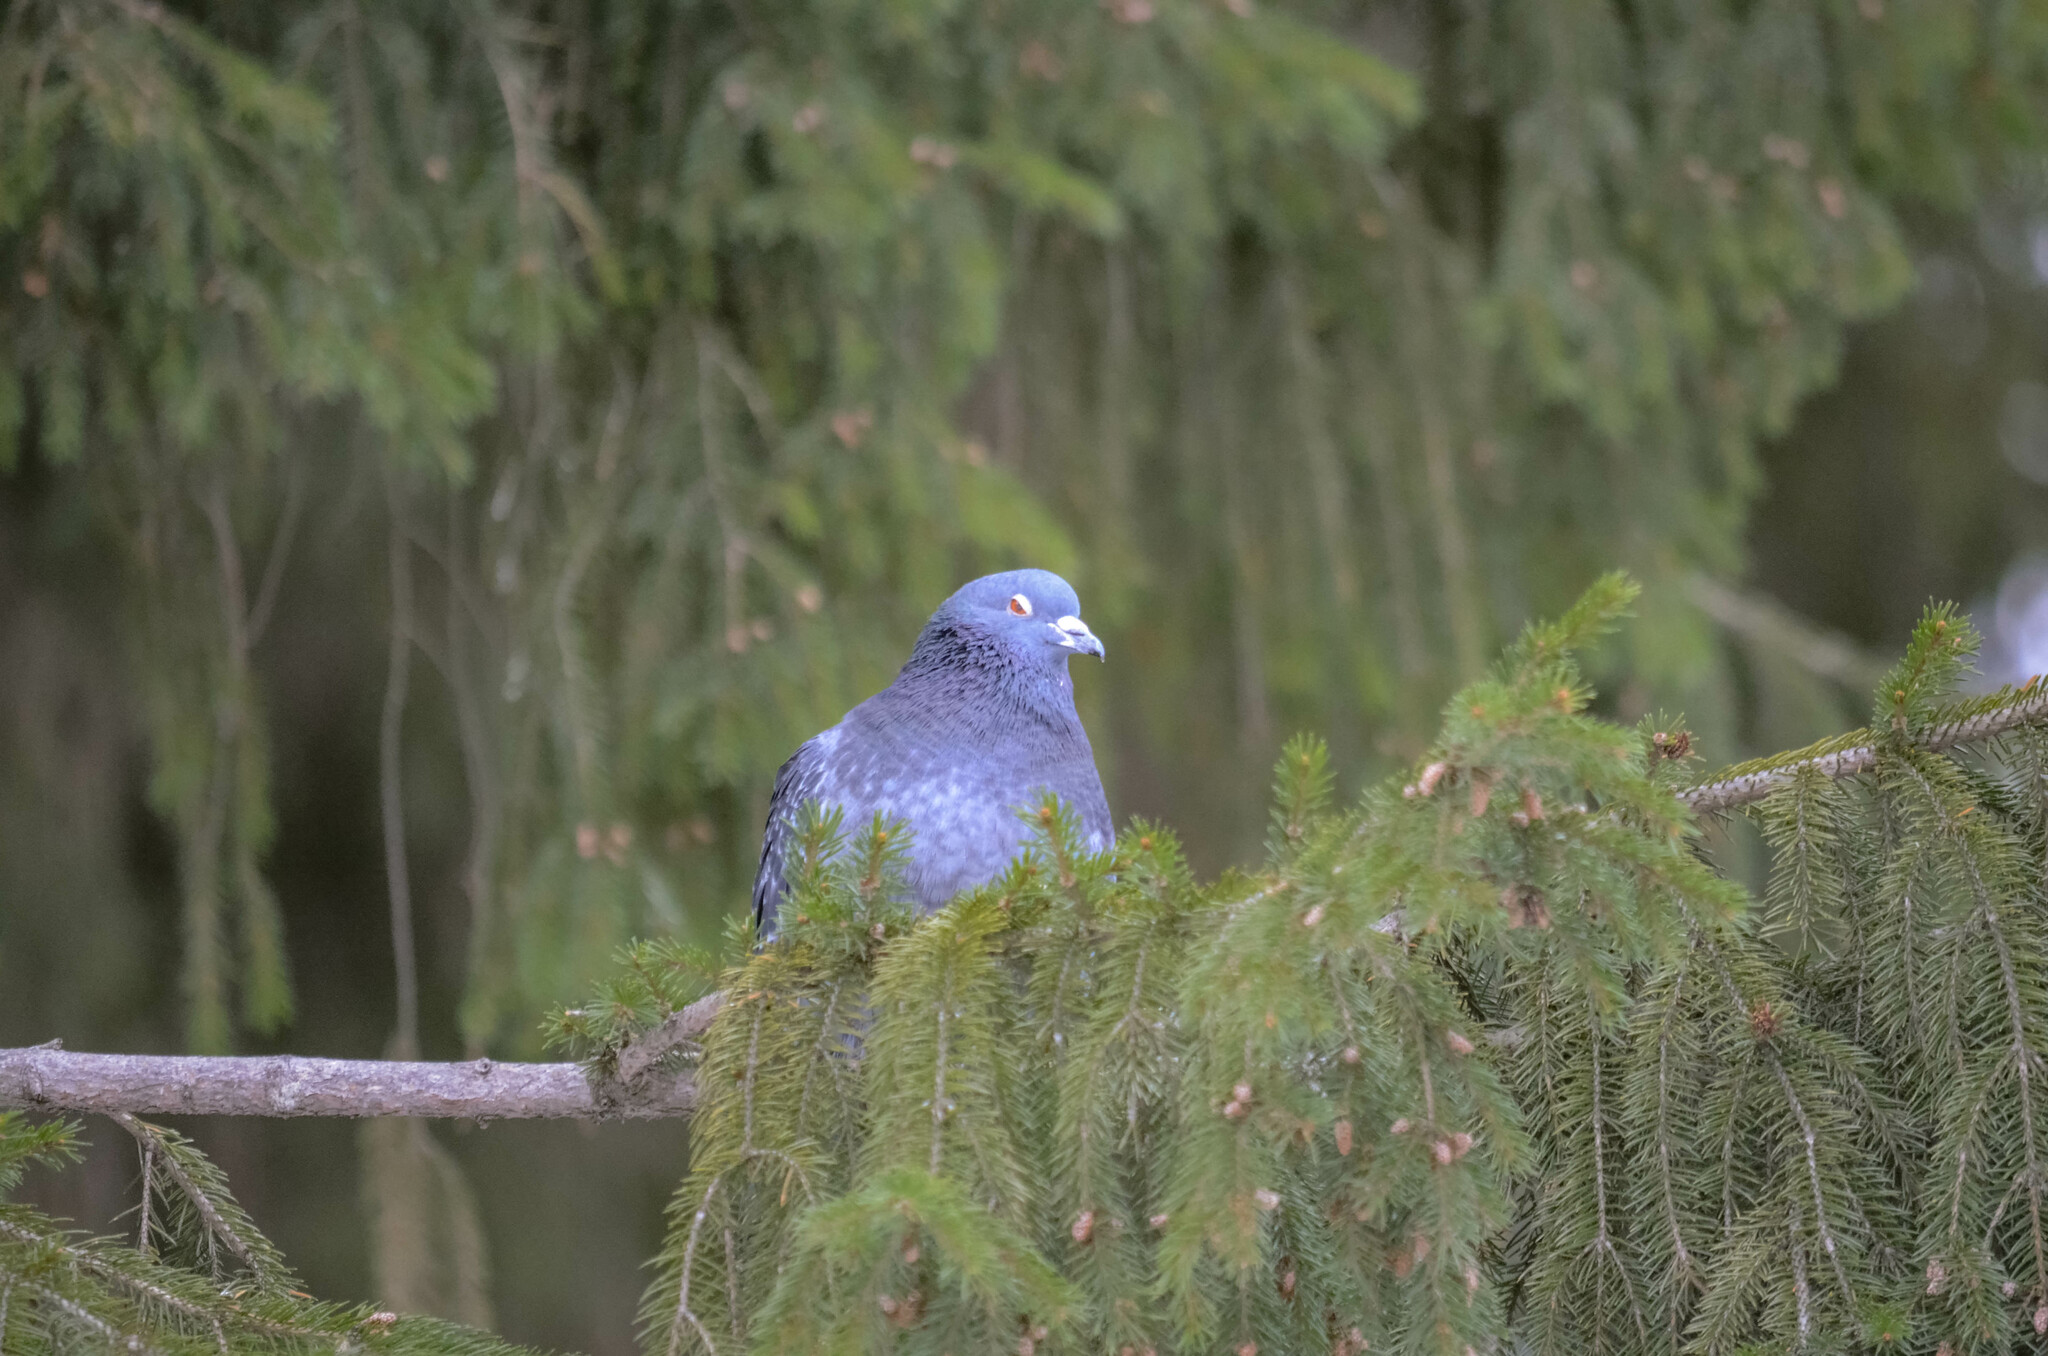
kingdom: Animalia
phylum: Chordata
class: Aves
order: Columbiformes
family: Columbidae
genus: Columba
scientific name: Columba livia
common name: Rock pigeon
